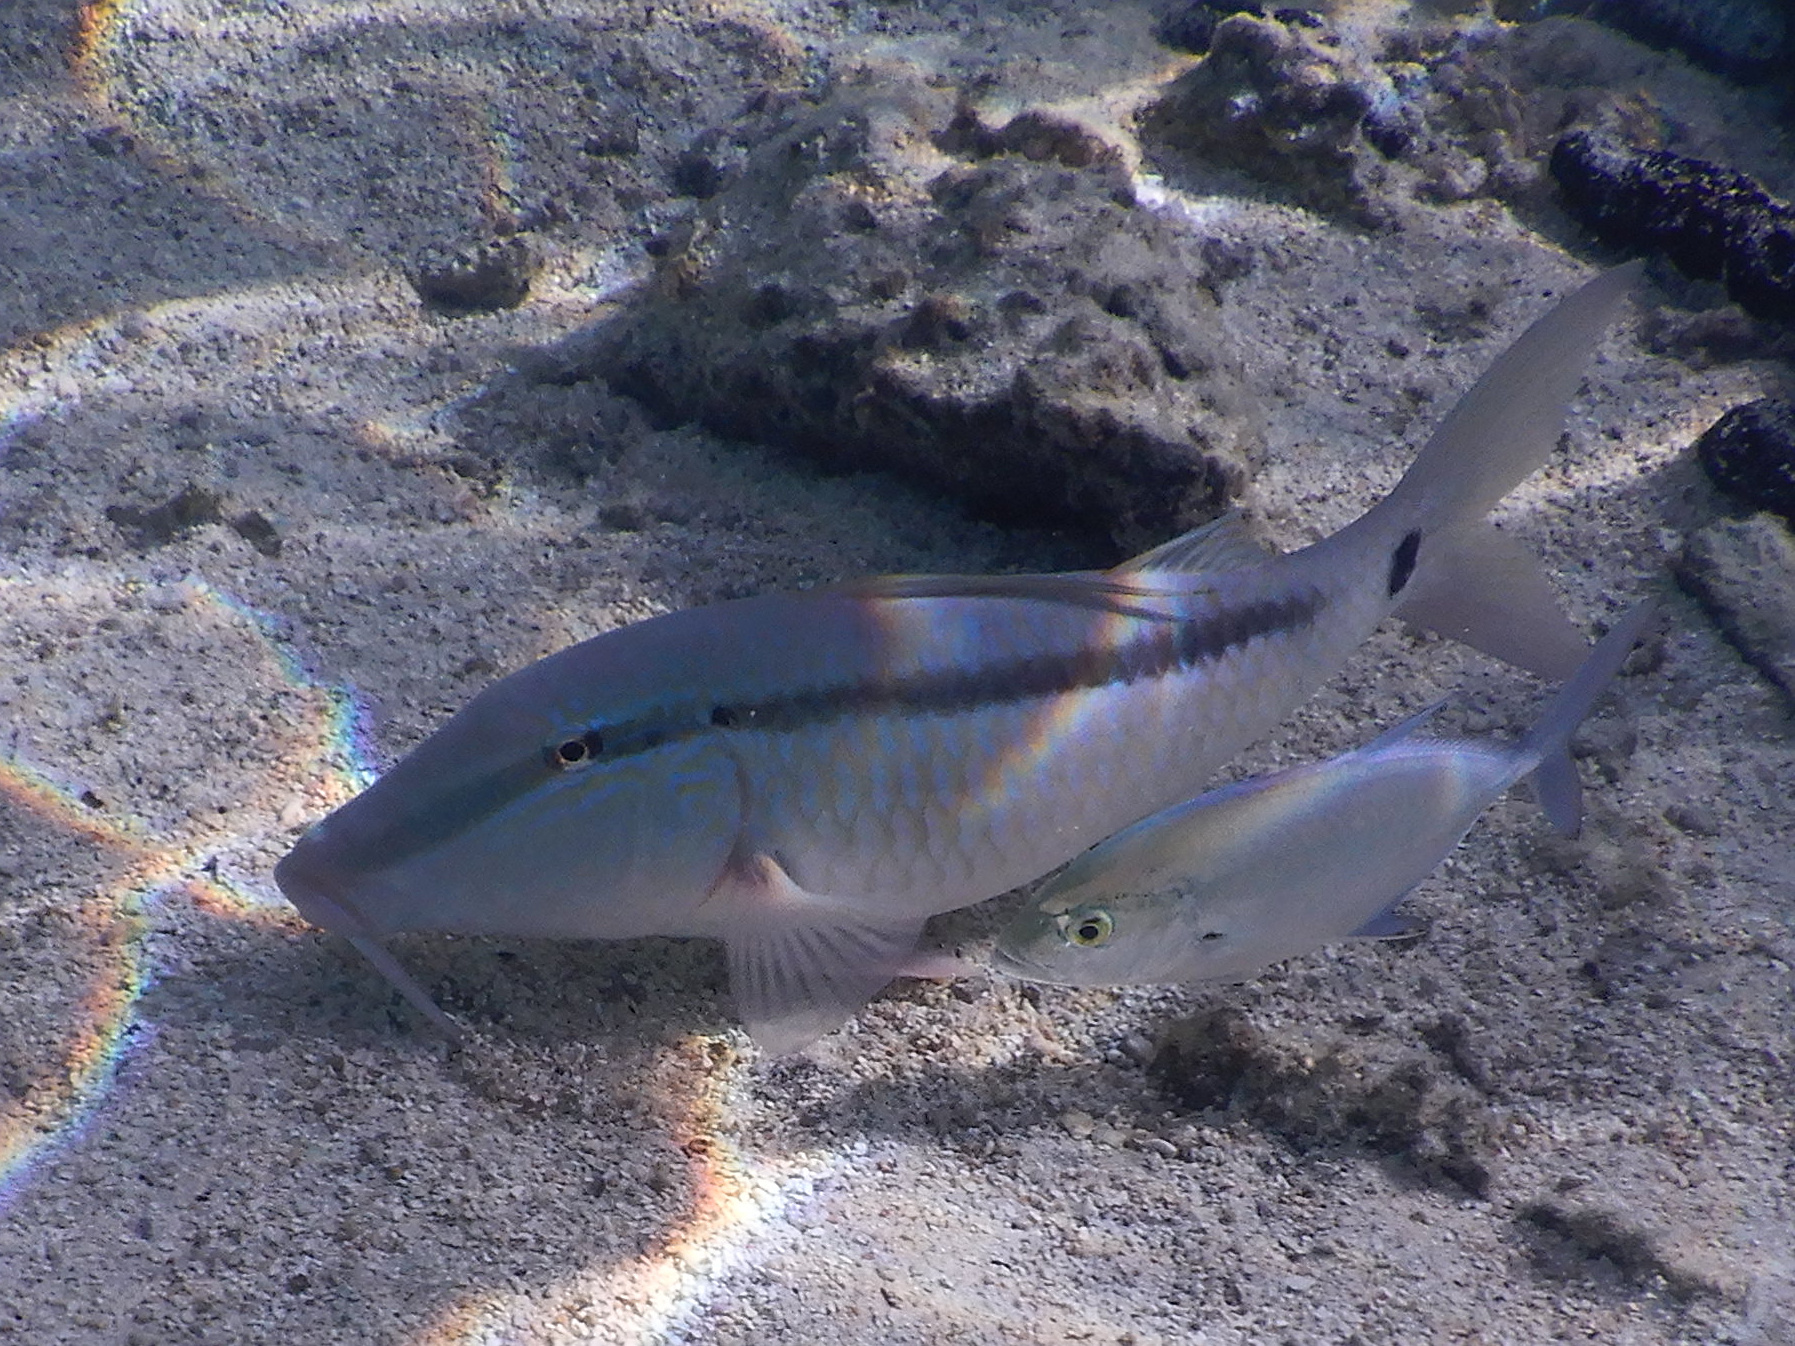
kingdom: Animalia
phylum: Chordata
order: Perciformes
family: Mullidae
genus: Parupeneus
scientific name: Parupeneus barberinus
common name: Dash-and-dot goatfish
